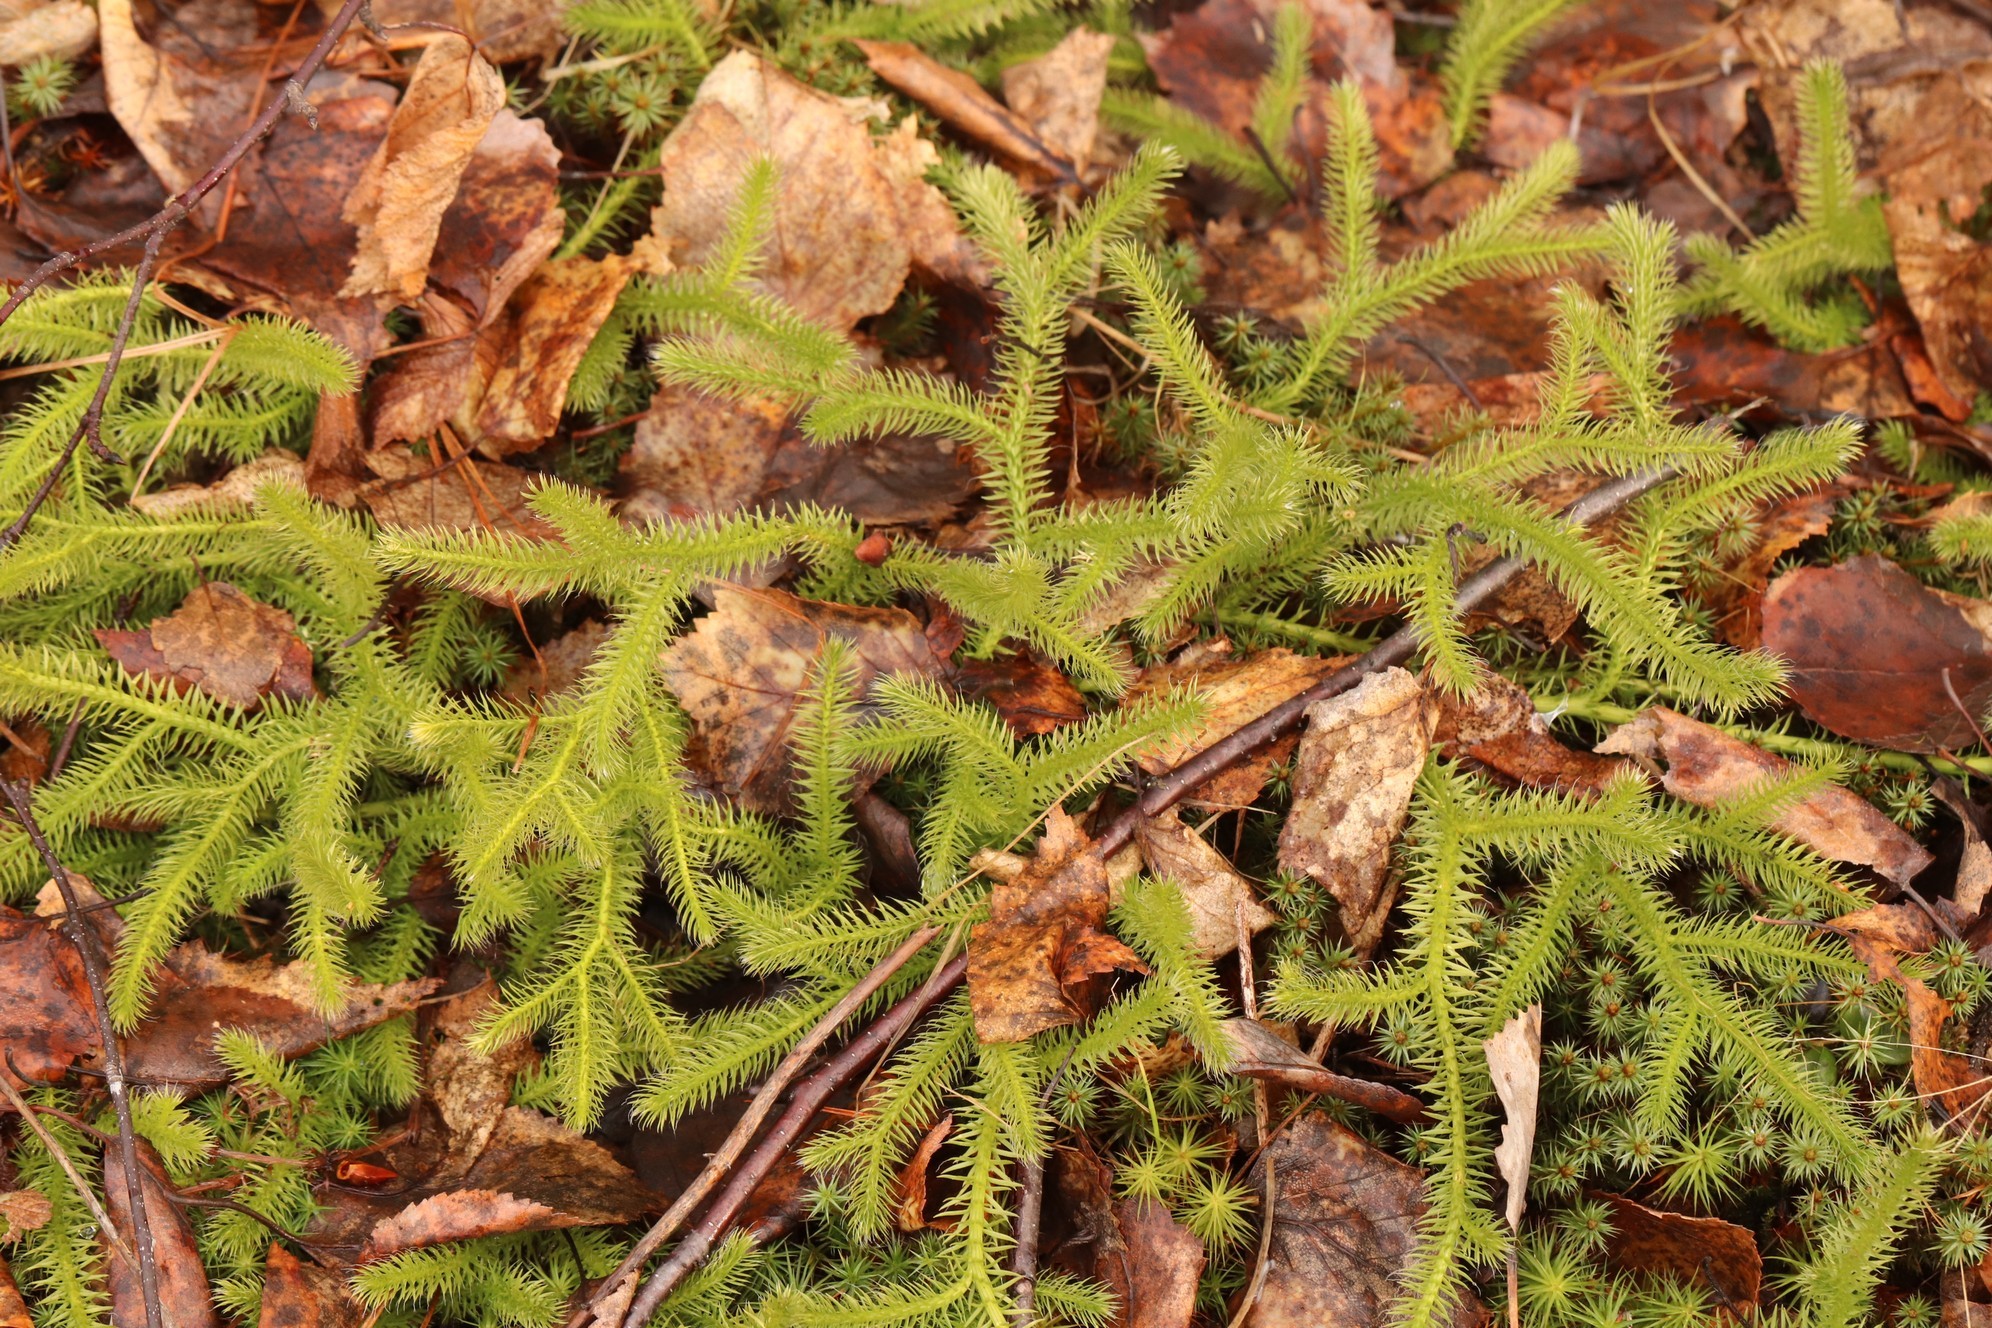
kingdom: Plantae
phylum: Tracheophyta
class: Lycopodiopsida
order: Lycopodiales
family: Lycopodiaceae
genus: Lycopodium
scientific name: Lycopodium clavatum
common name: Stag's-horn clubmoss
